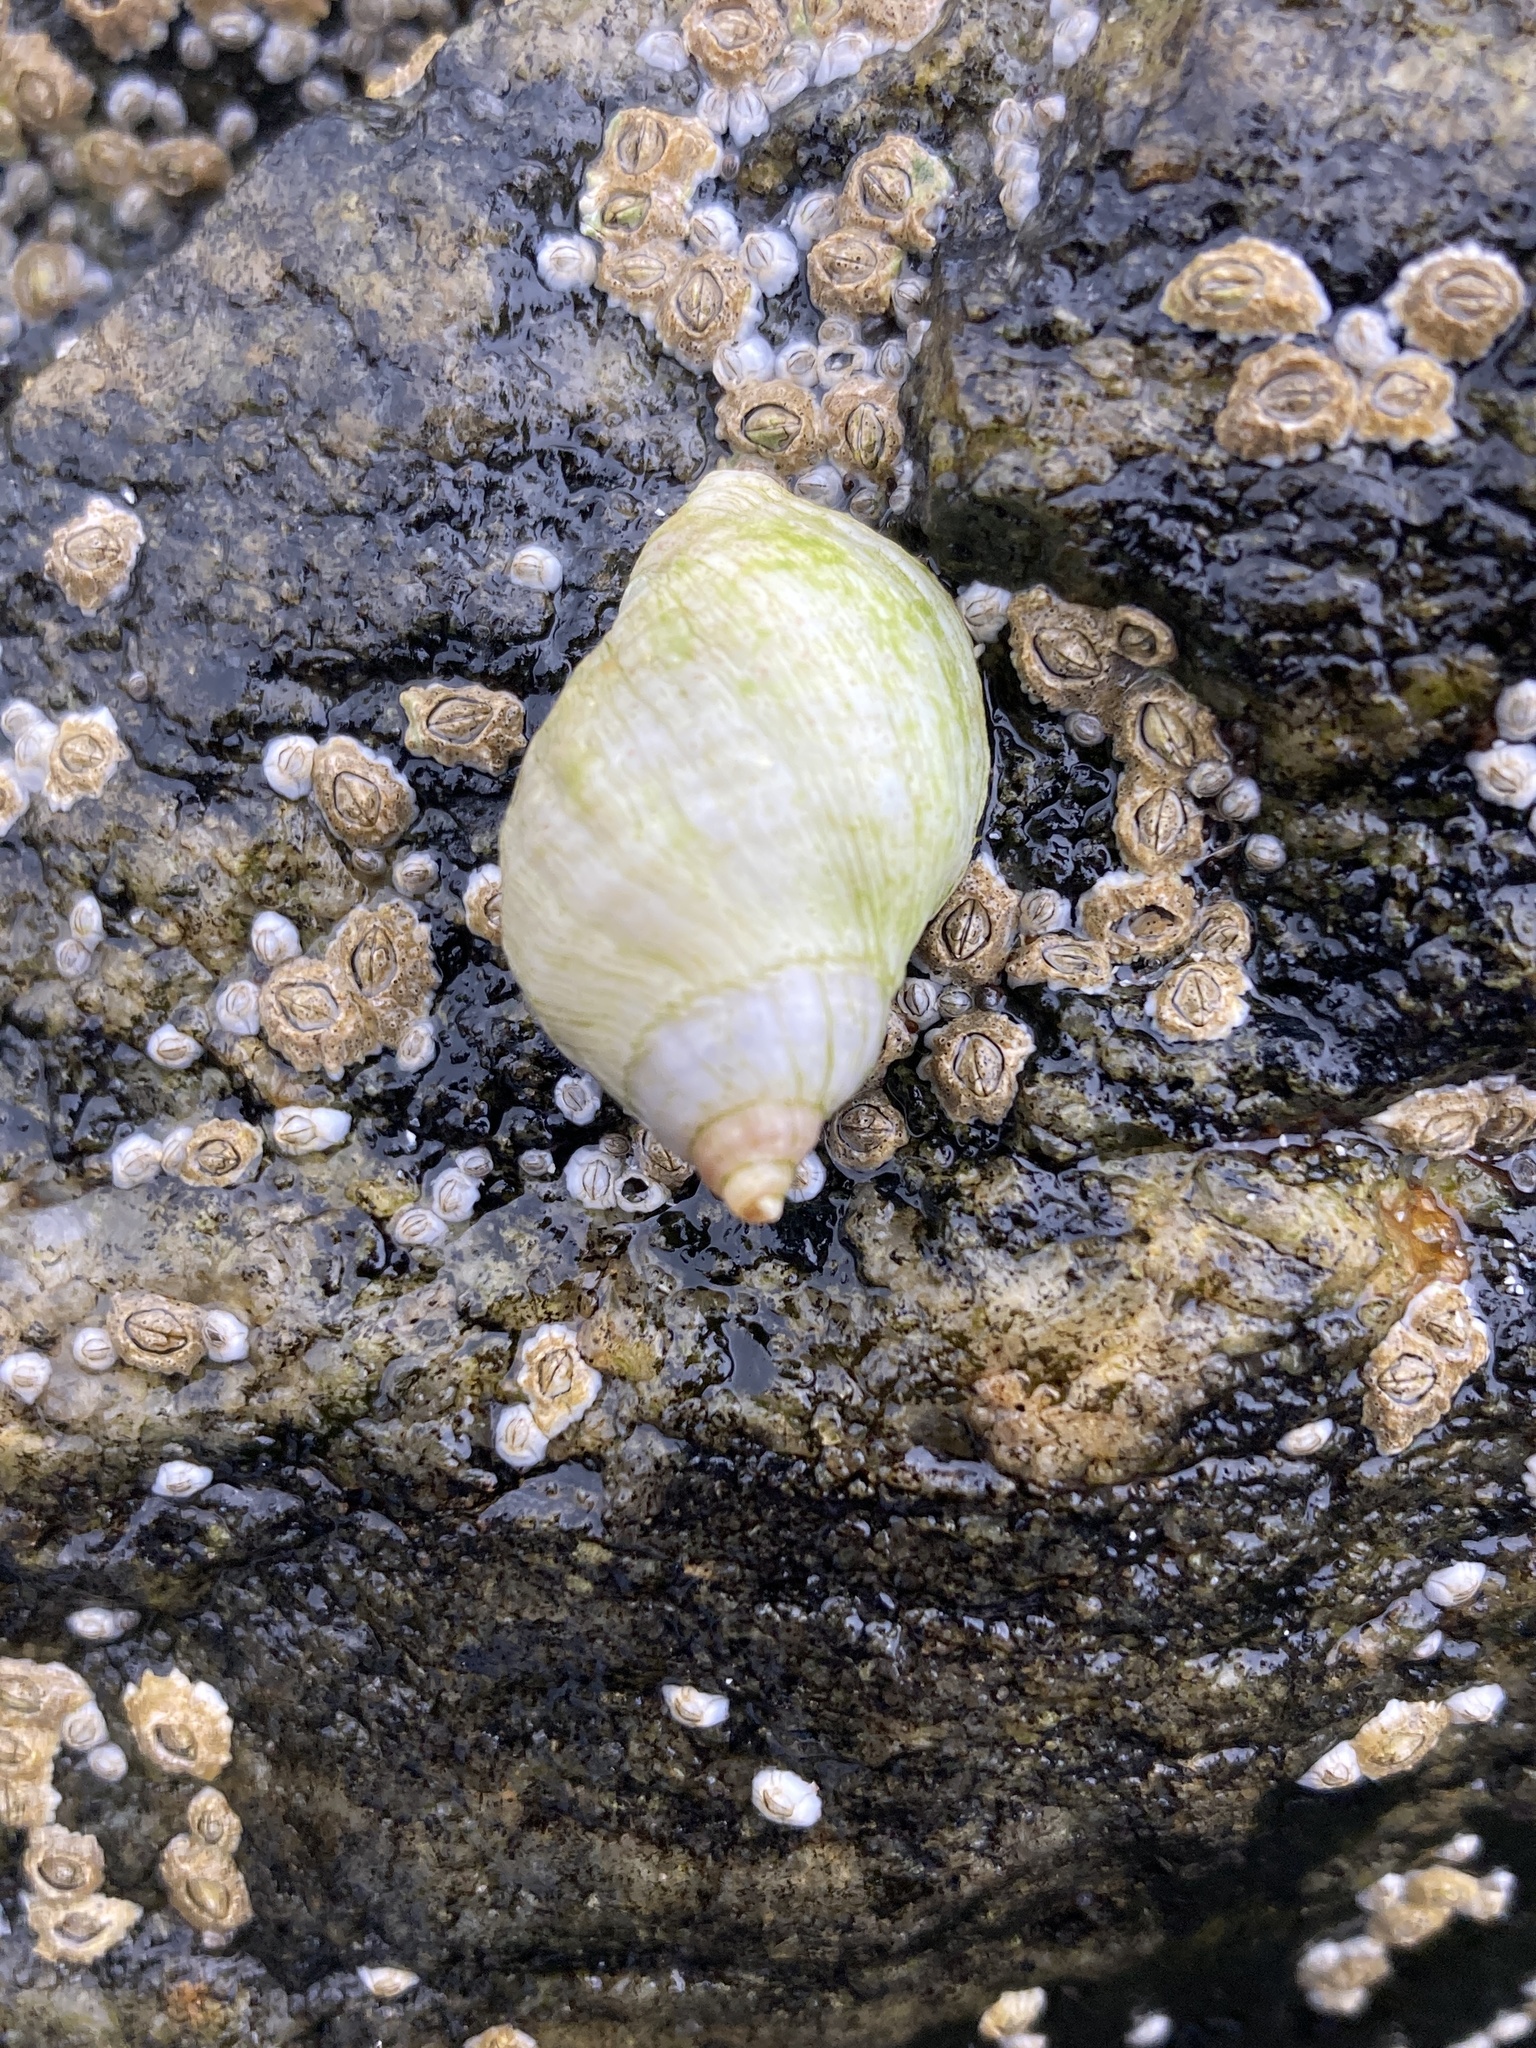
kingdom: Animalia
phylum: Mollusca
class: Gastropoda
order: Neogastropoda
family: Muricidae
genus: Nucella
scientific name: Nucella lapillus
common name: Dog whelk
